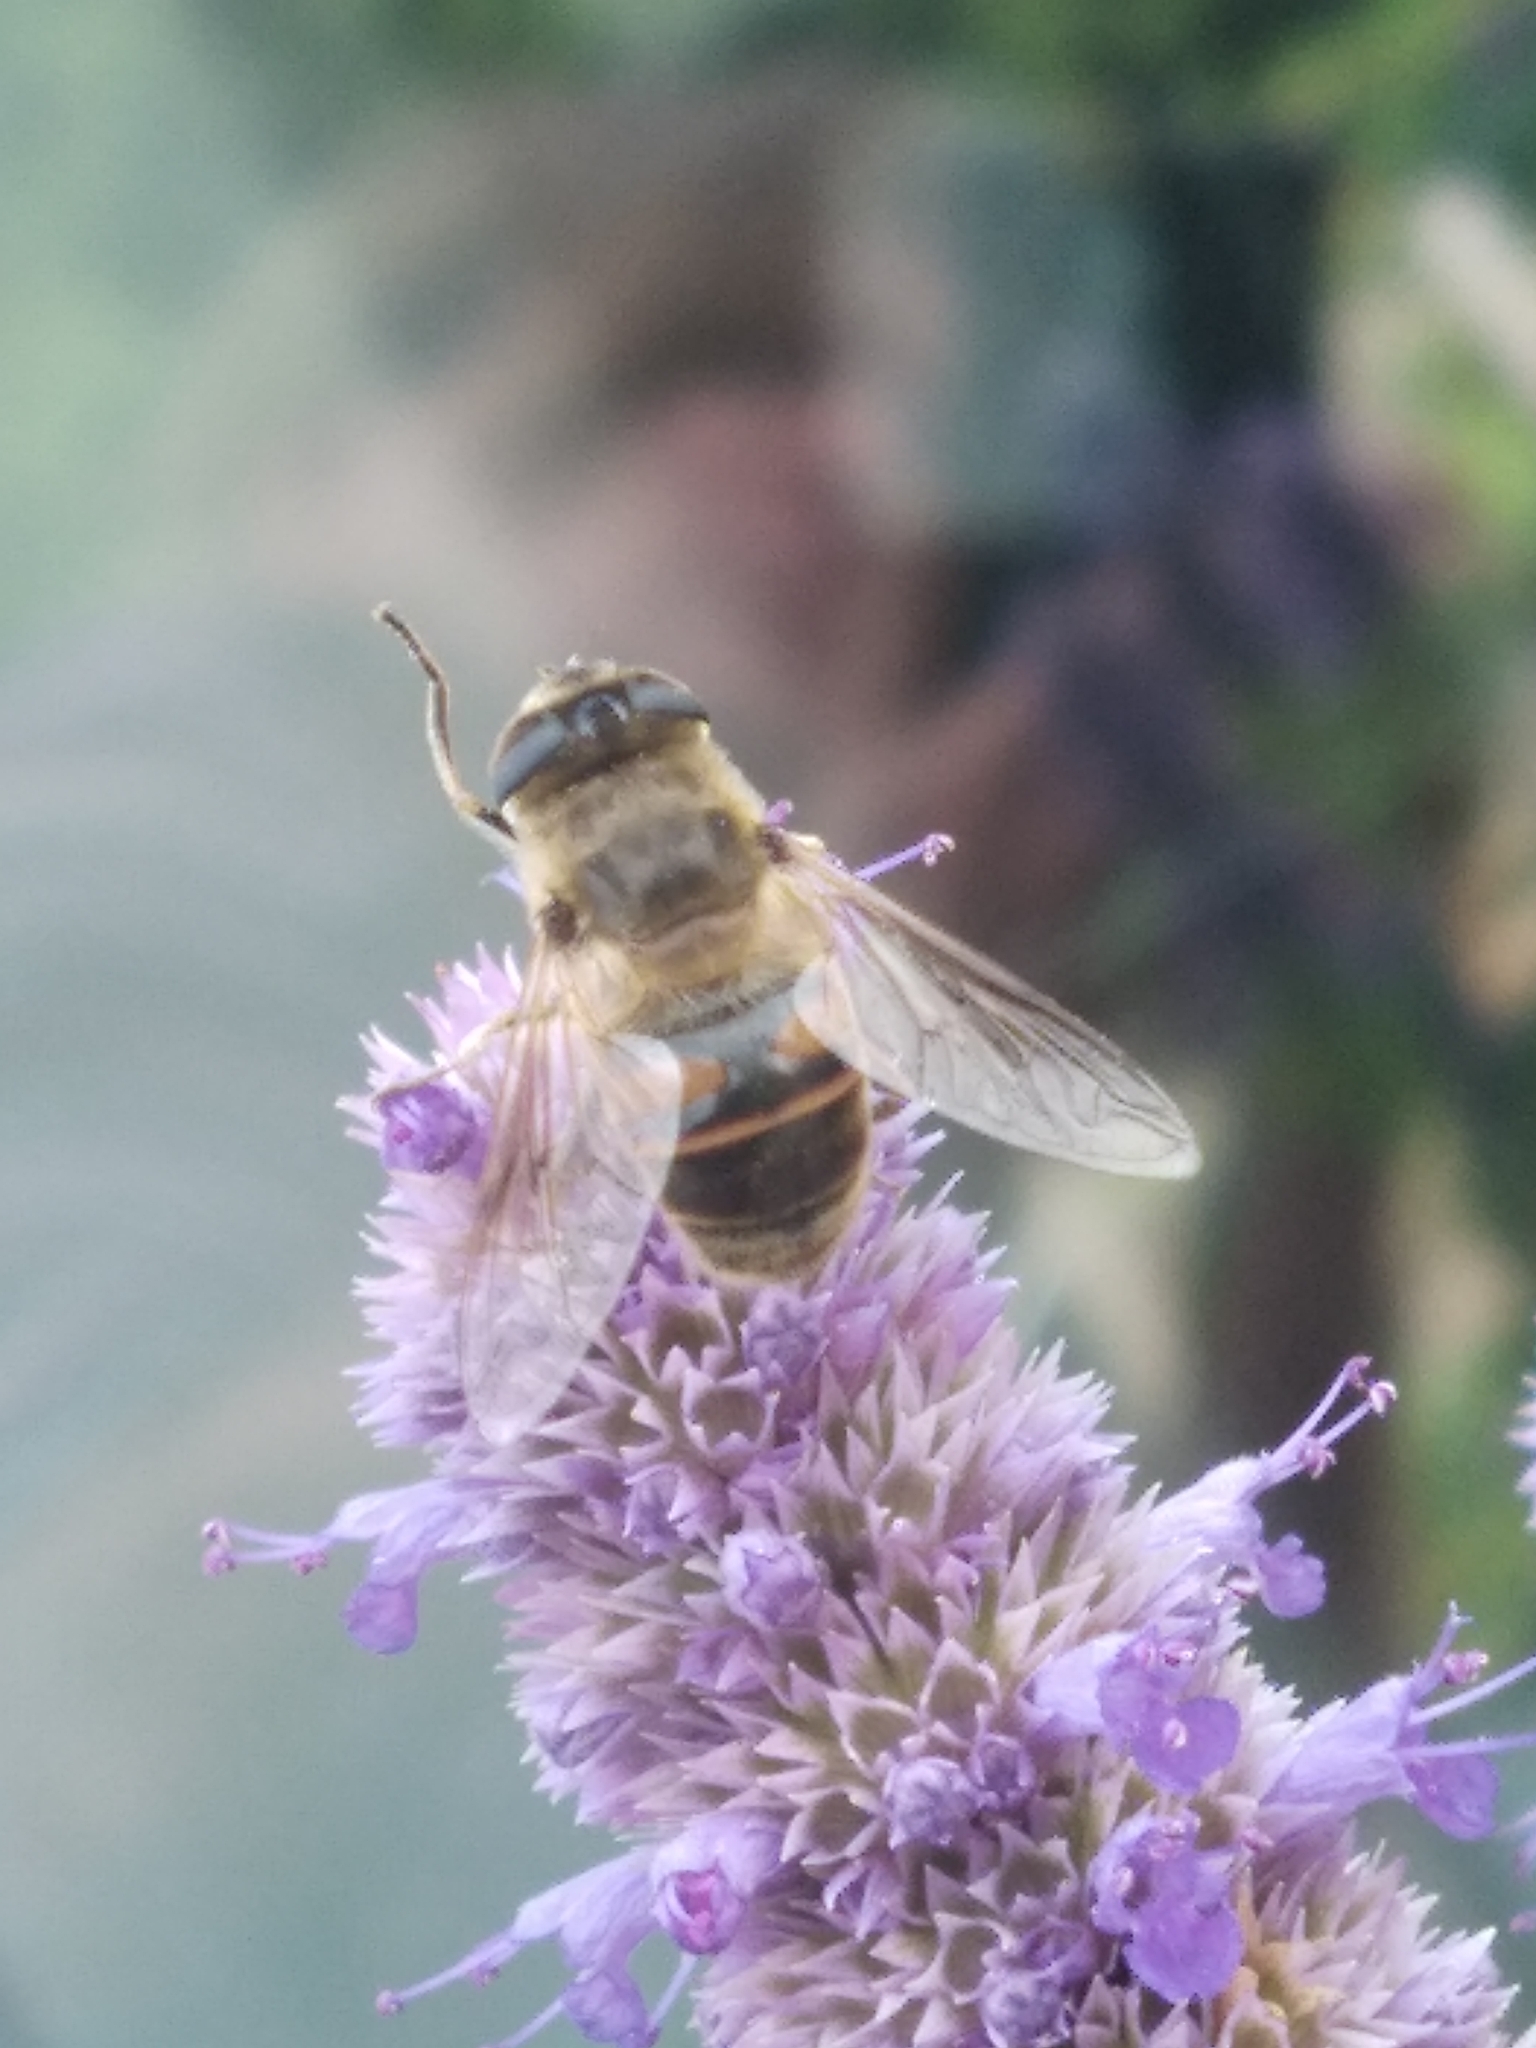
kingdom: Animalia
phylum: Arthropoda
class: Insecta
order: Diptera
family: Syrphidae
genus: Eristalis
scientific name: Eristalis tenax
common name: Drone fly
